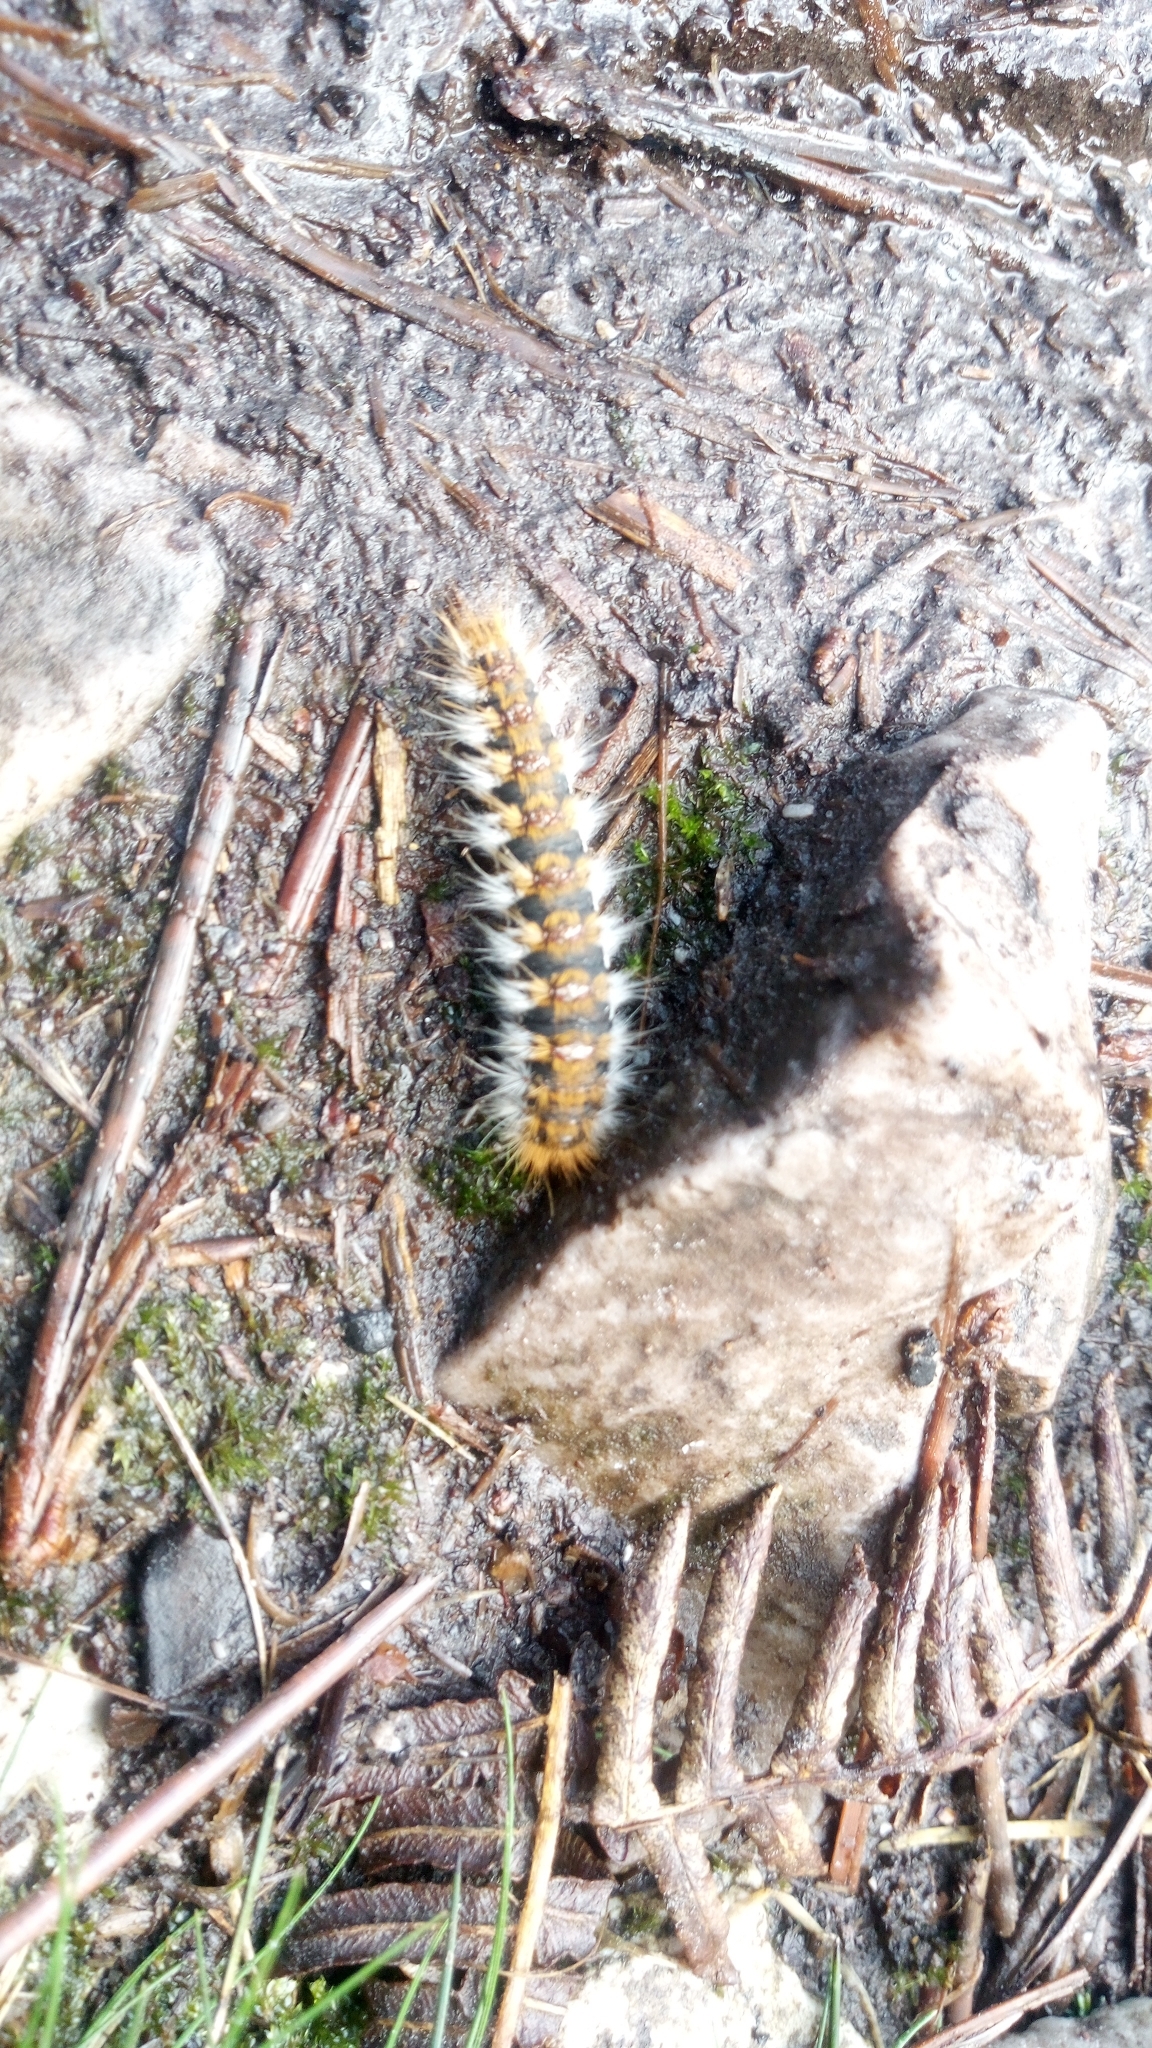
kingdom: Animalia
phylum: Arthropoda
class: Insecta
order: Lepidoptera
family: Notodontidae
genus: Thaumetopoea
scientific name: Thaumetopoea pityocampa
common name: Pine processionary
